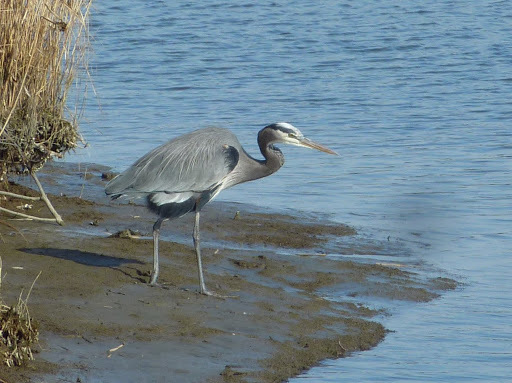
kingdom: Animalia
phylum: Chordata
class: Aves
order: Pelecaniformes
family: Ardeidae
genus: Ardea
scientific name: Ardea herodias
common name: Great blue heron
